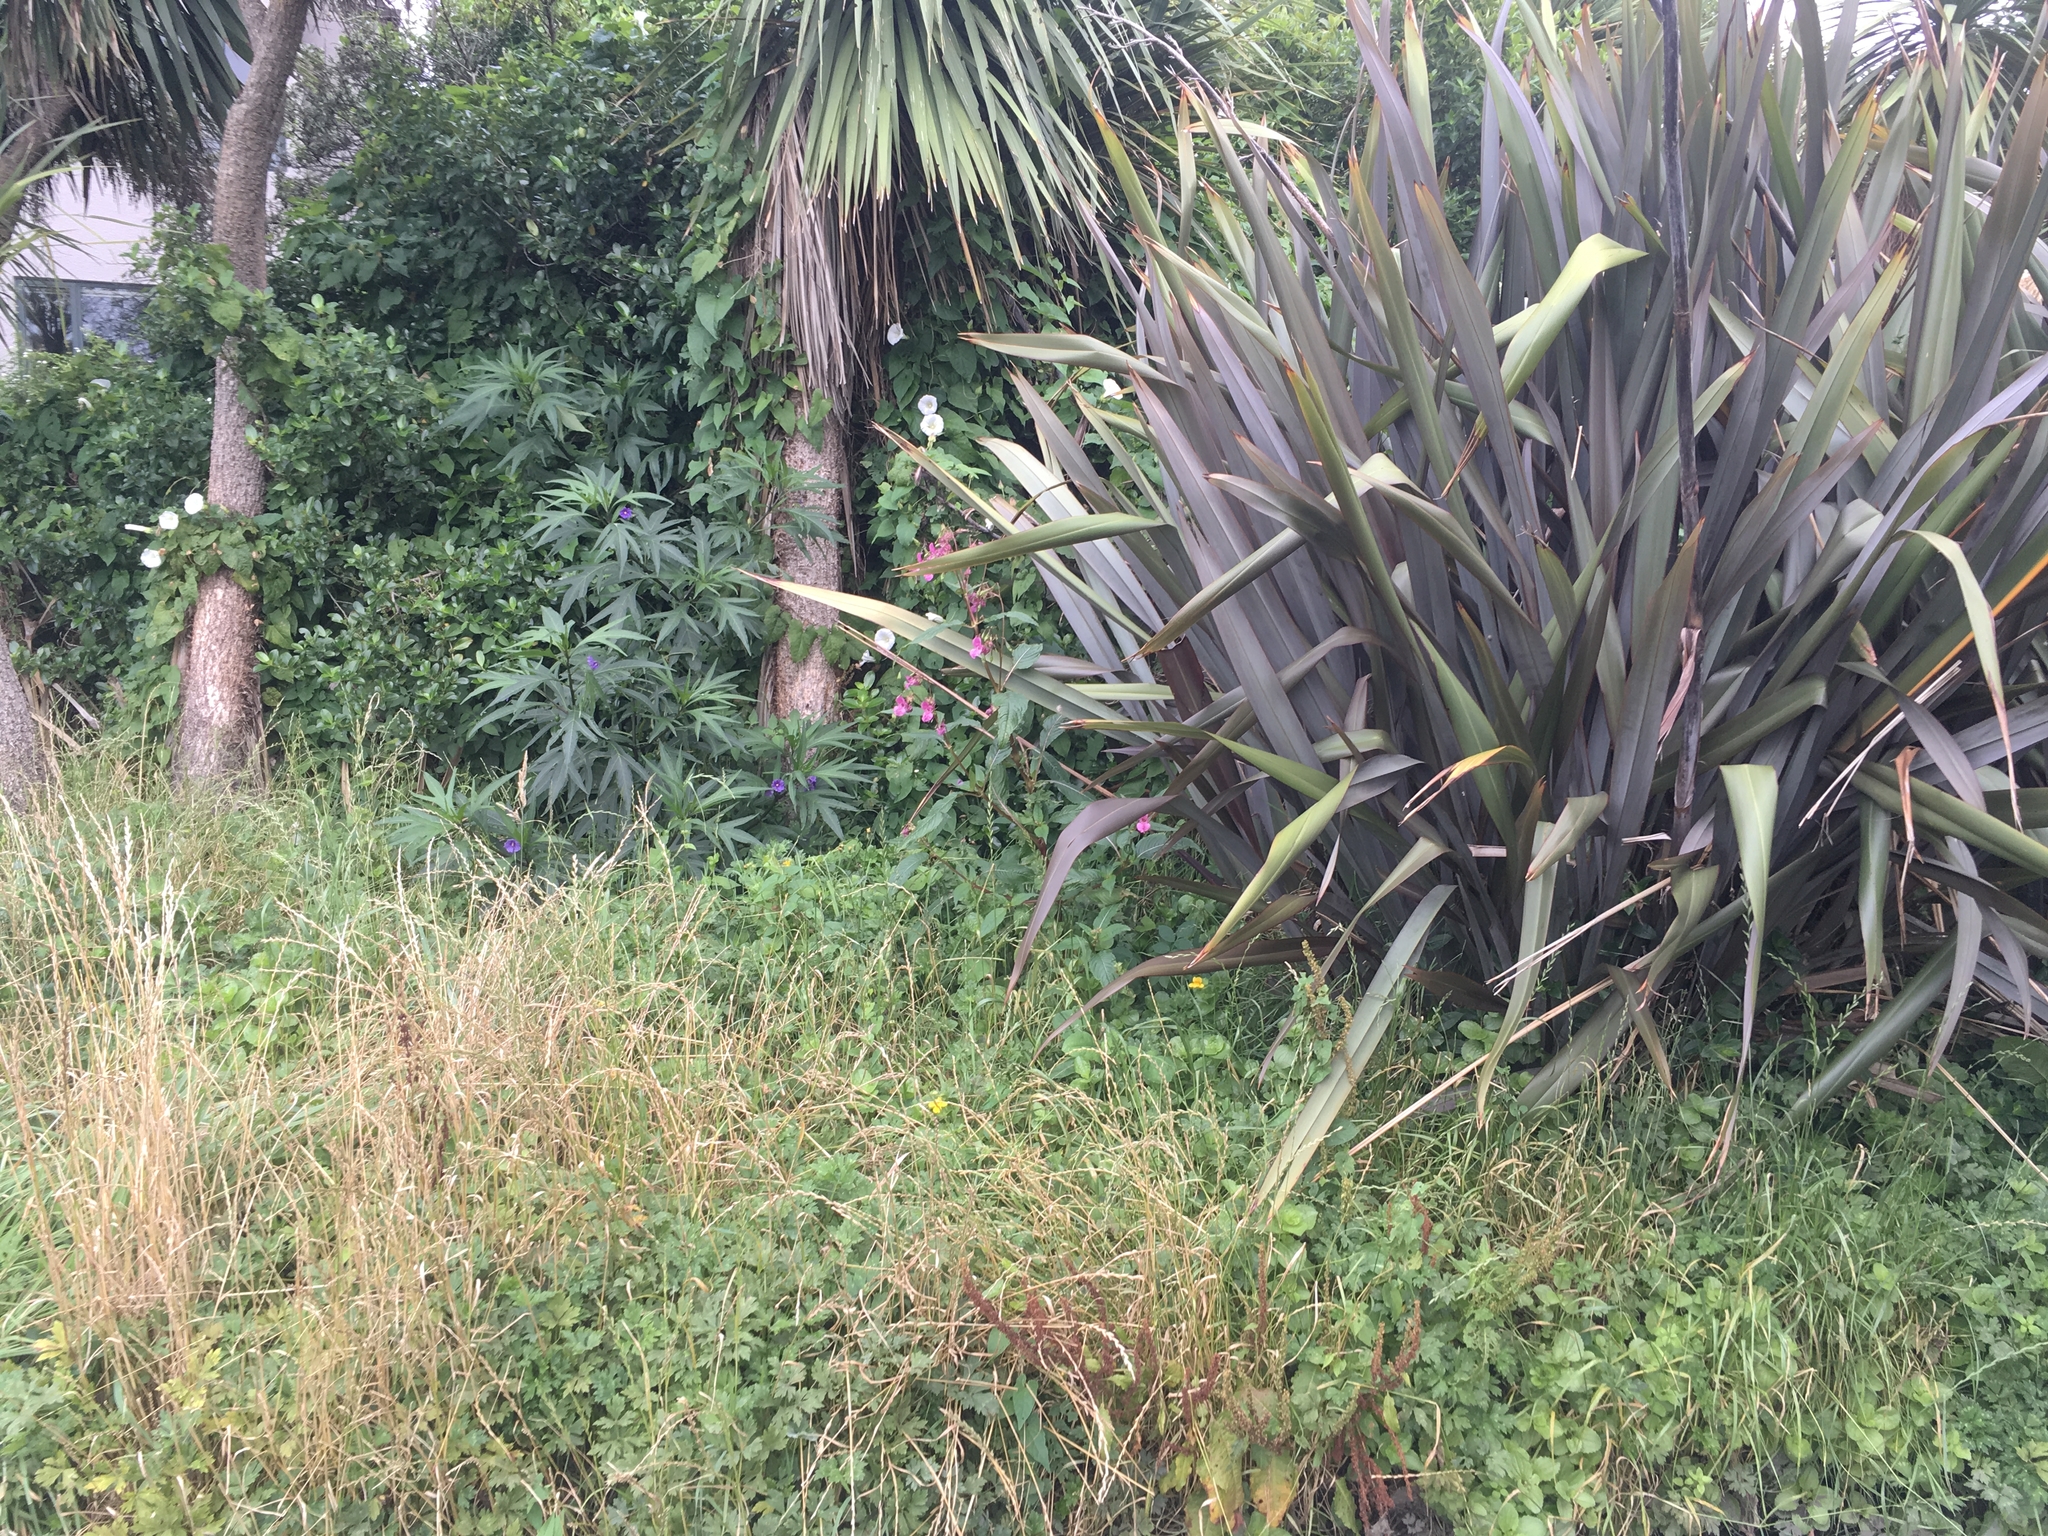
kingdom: Plantae
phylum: Tracheophyta
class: Magnoliopsida
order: Ericales
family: Balsaminaceae
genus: Impatiens
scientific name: Impatiens glandulifera
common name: Himalayan balsam
